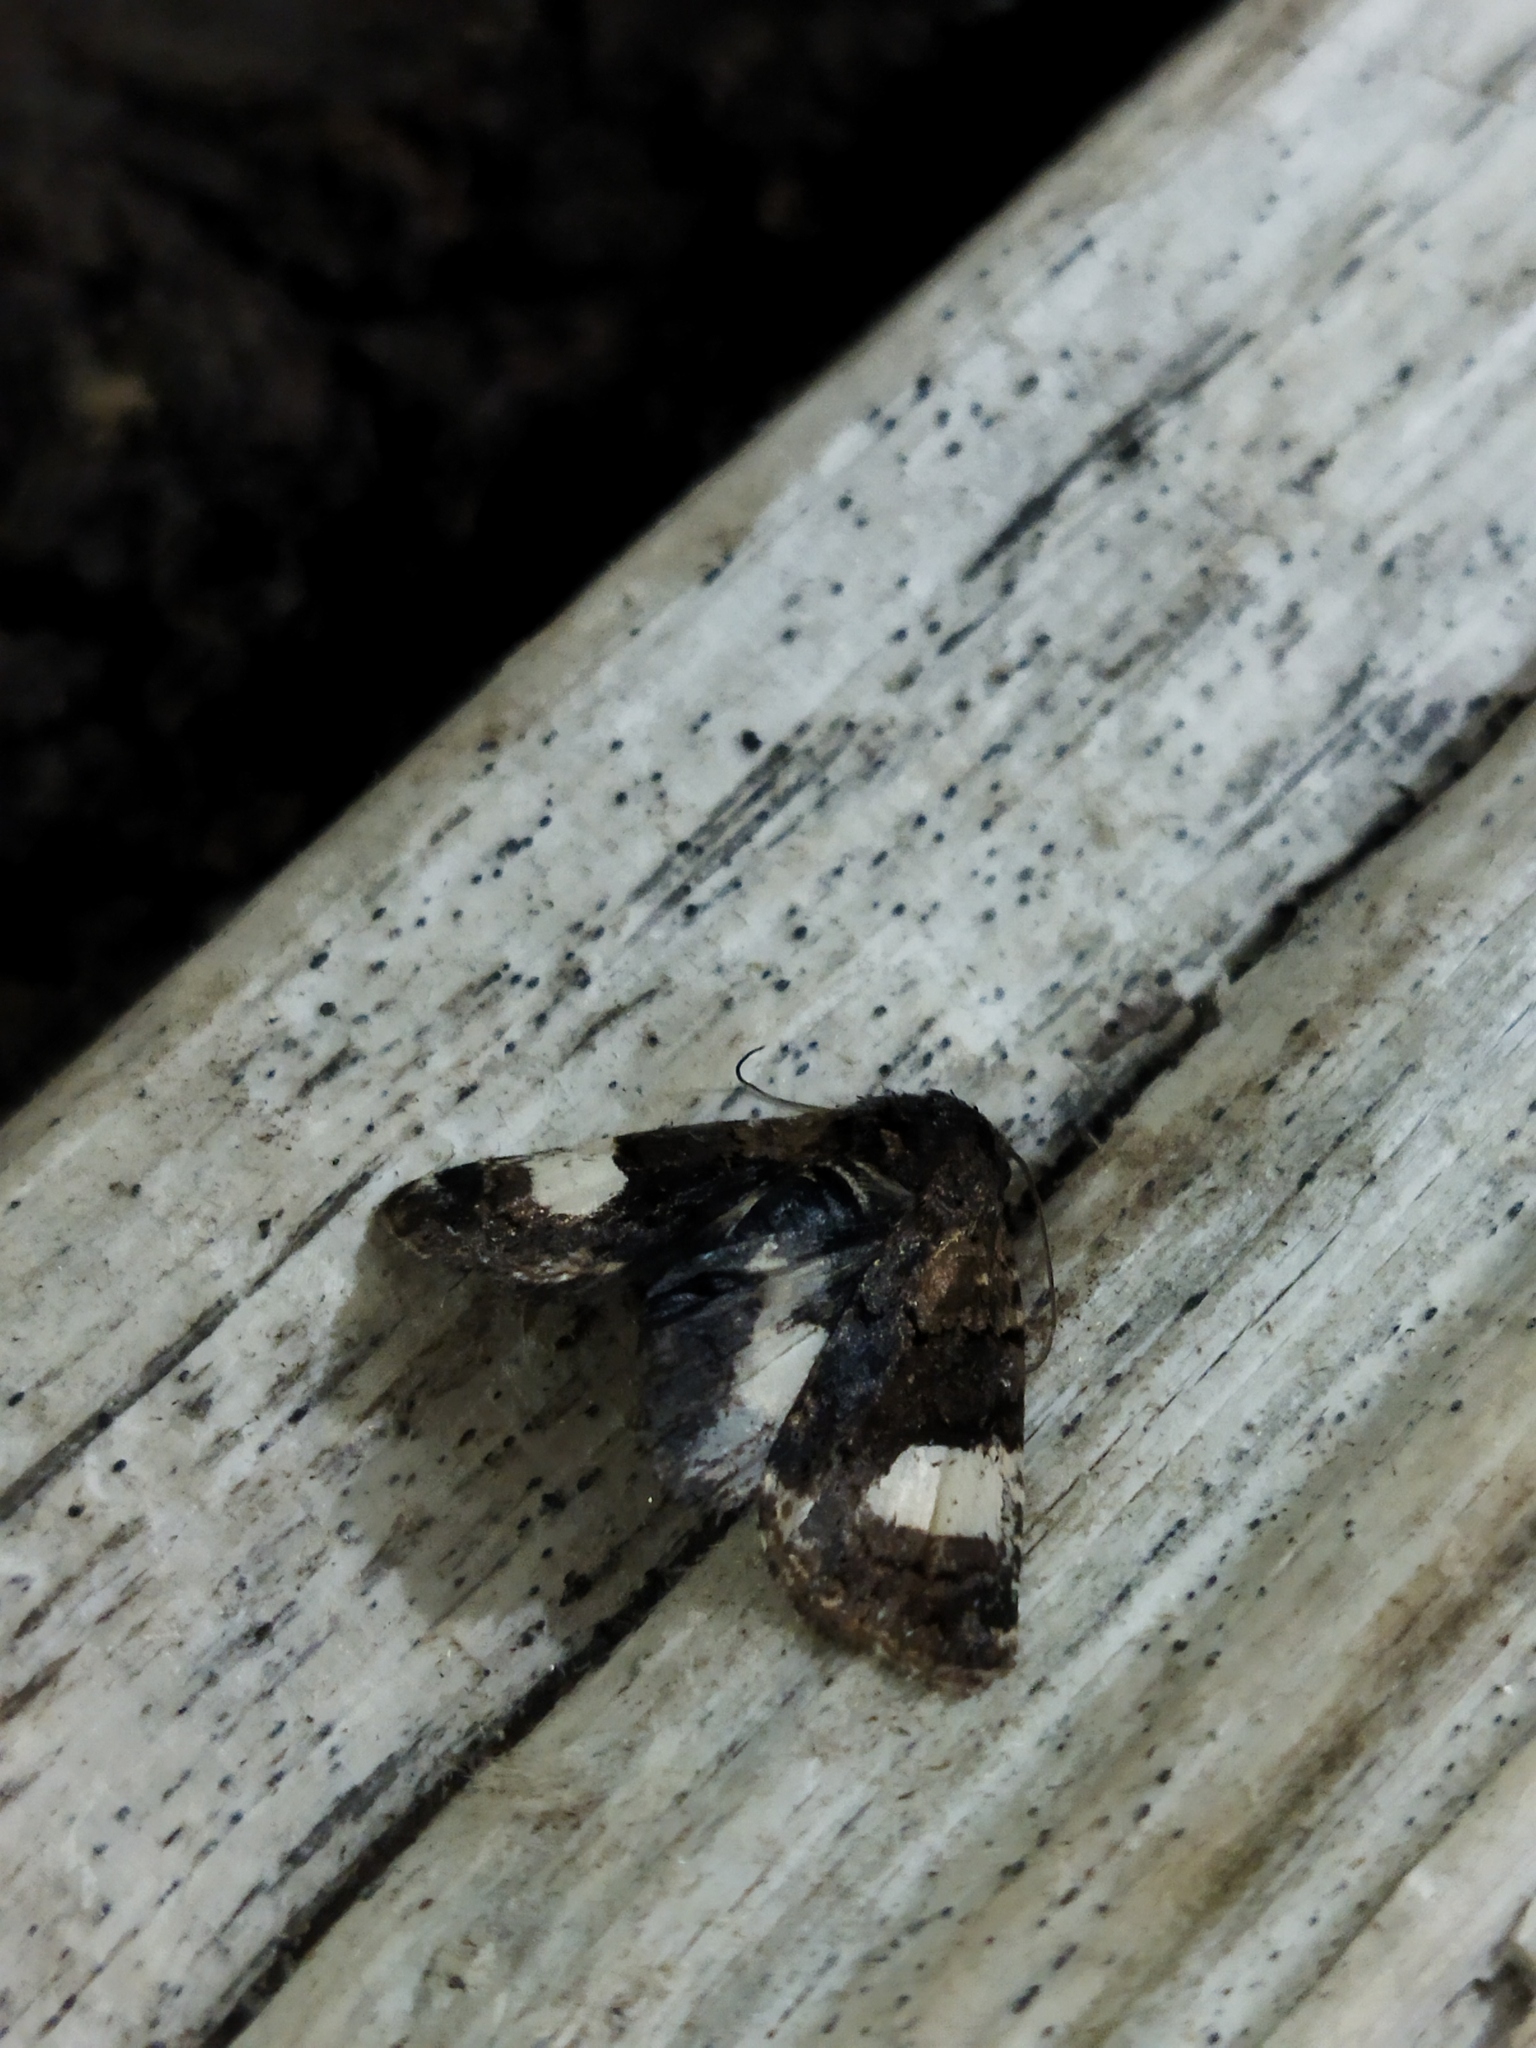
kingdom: Animalia
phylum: Arthropoda
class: Insecta
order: Lepidoptera
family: Erebidae
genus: Tyta
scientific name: Tyta luctuosa
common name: Four-spotted
